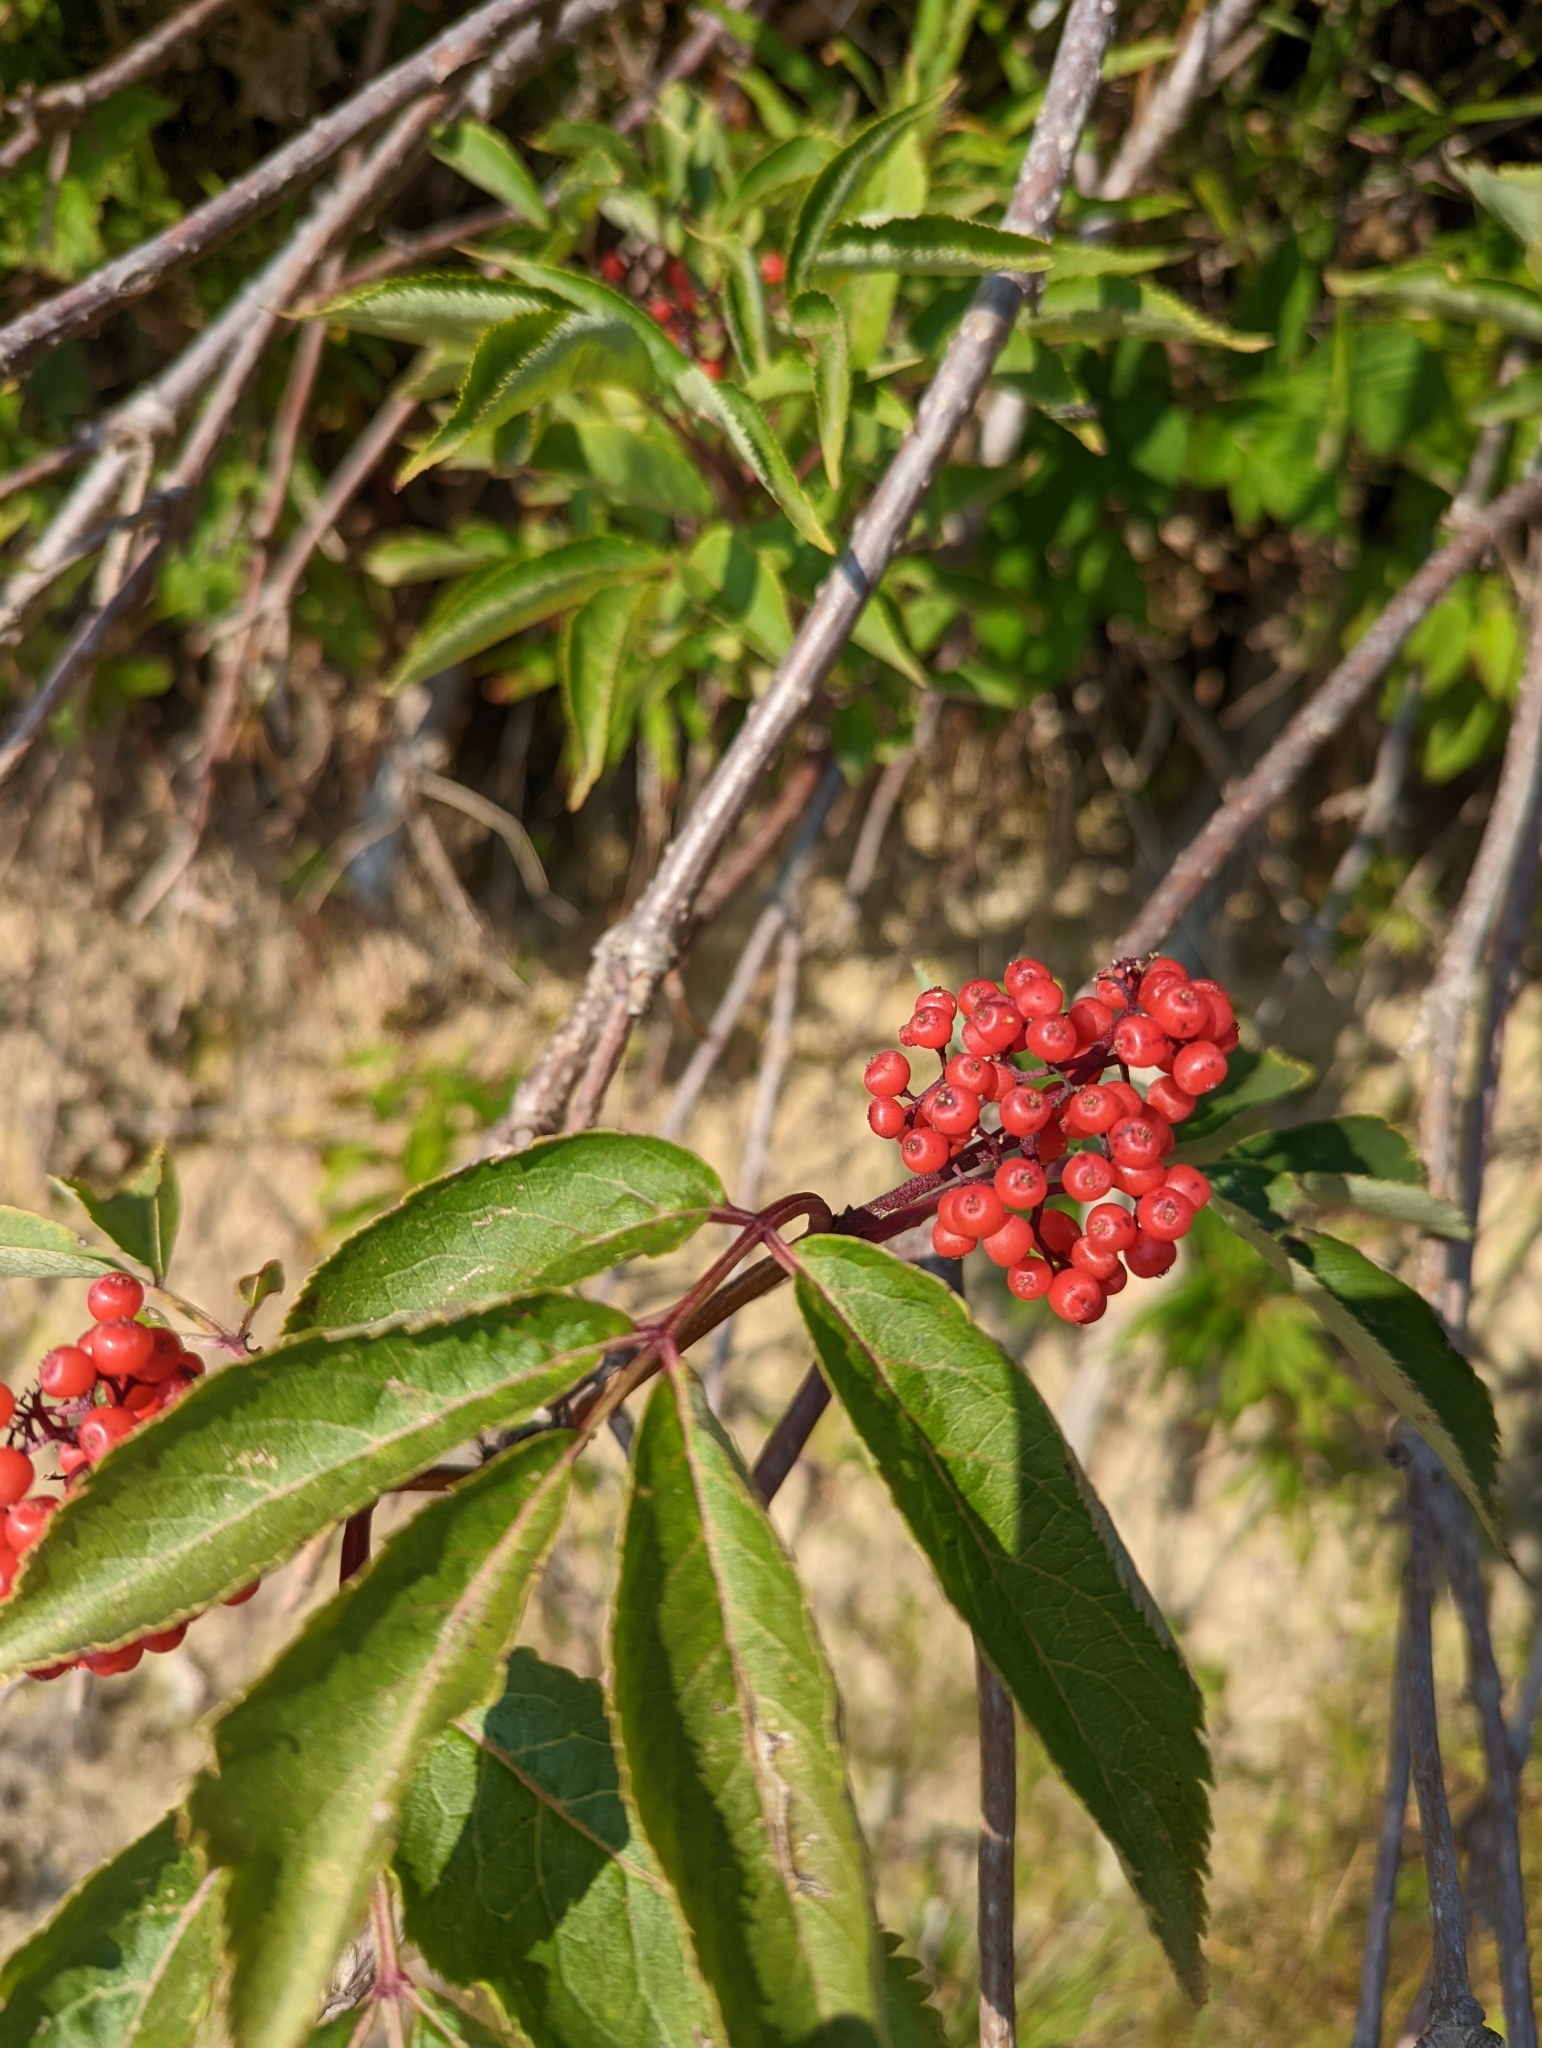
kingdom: Plantae
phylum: Tracheophyta
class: Magnoliopsida
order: Dipsacales
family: Viburnaceae
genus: Sambucus
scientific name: Sambucus racemosa
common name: Red-berried elder
